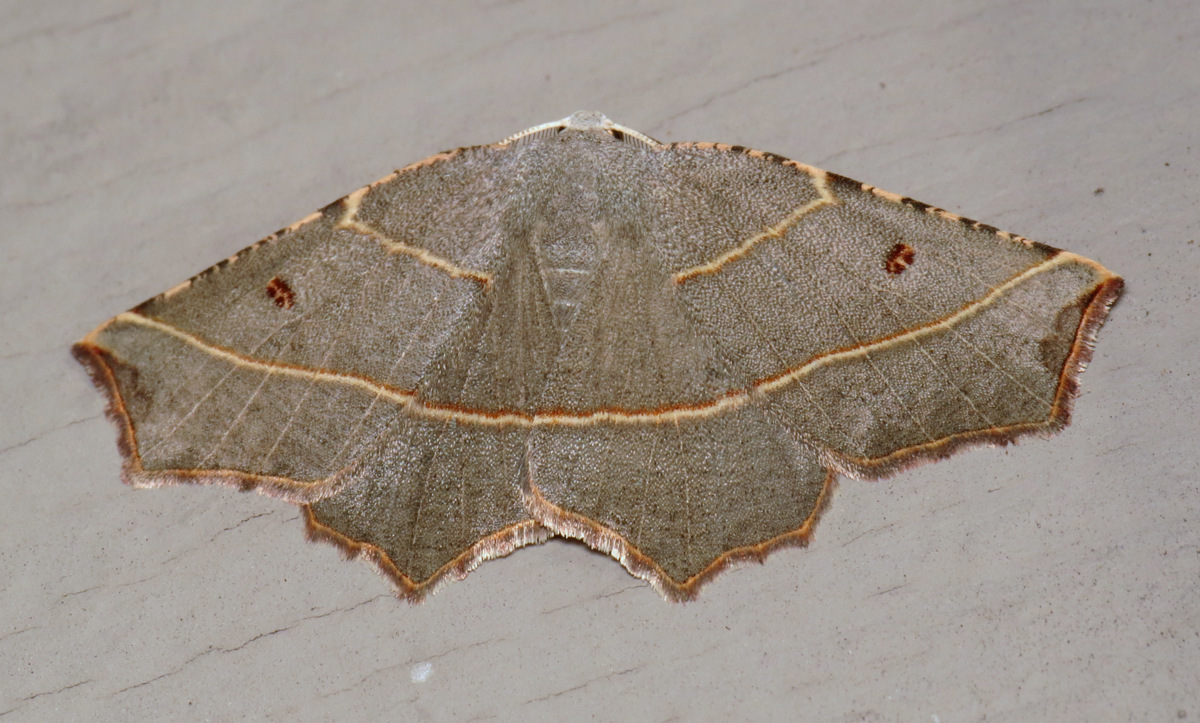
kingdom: Animalia
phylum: Arthropoda
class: Insecta
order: Lepidoptera
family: Geometridae
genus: Metanema
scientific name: Metanema inatomaria
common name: Pale metanema
